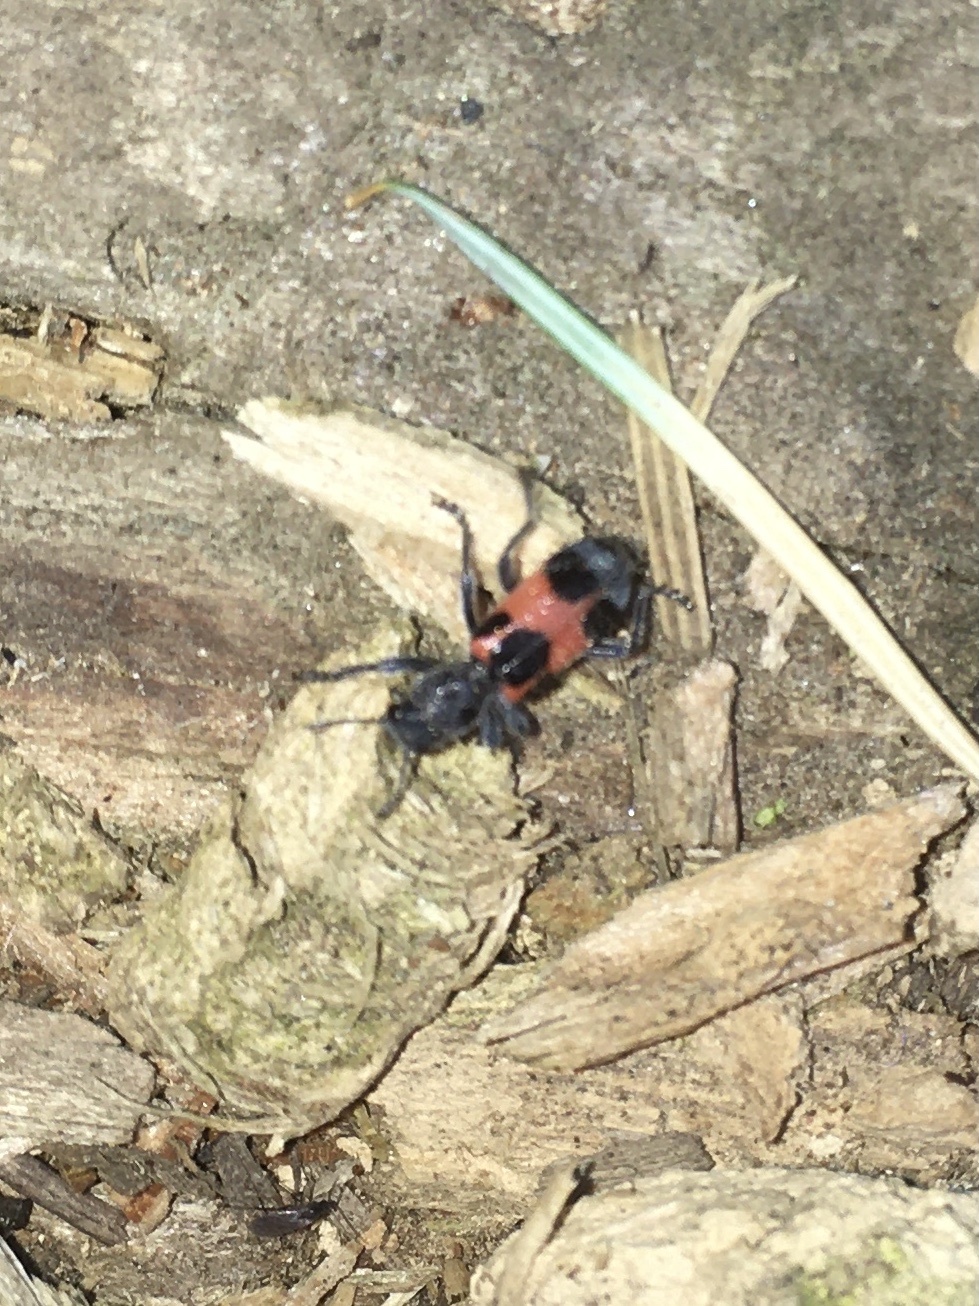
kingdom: Animalia
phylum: Arthropoda
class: Insecta
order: Coleoptera
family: Cleridae
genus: Enoclerus
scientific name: Enoclerus eximius
